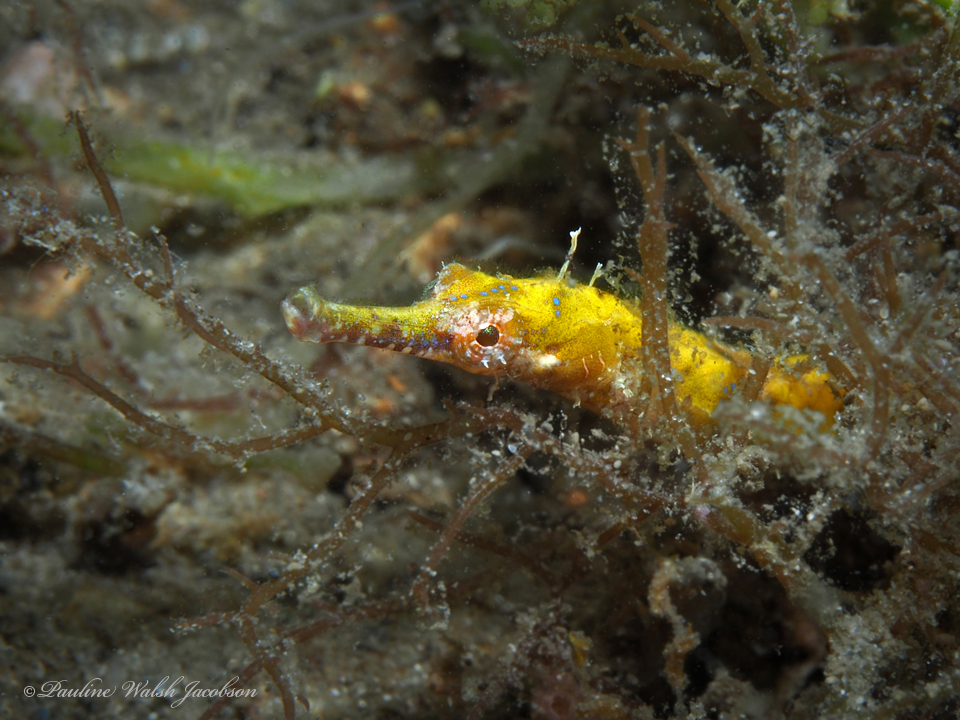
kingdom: Animalia
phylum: Chordata
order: Syngnathiformes
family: Syngnathidae
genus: Cosmocampus
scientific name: Cosmocampus elucens
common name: Poey's pipefish
